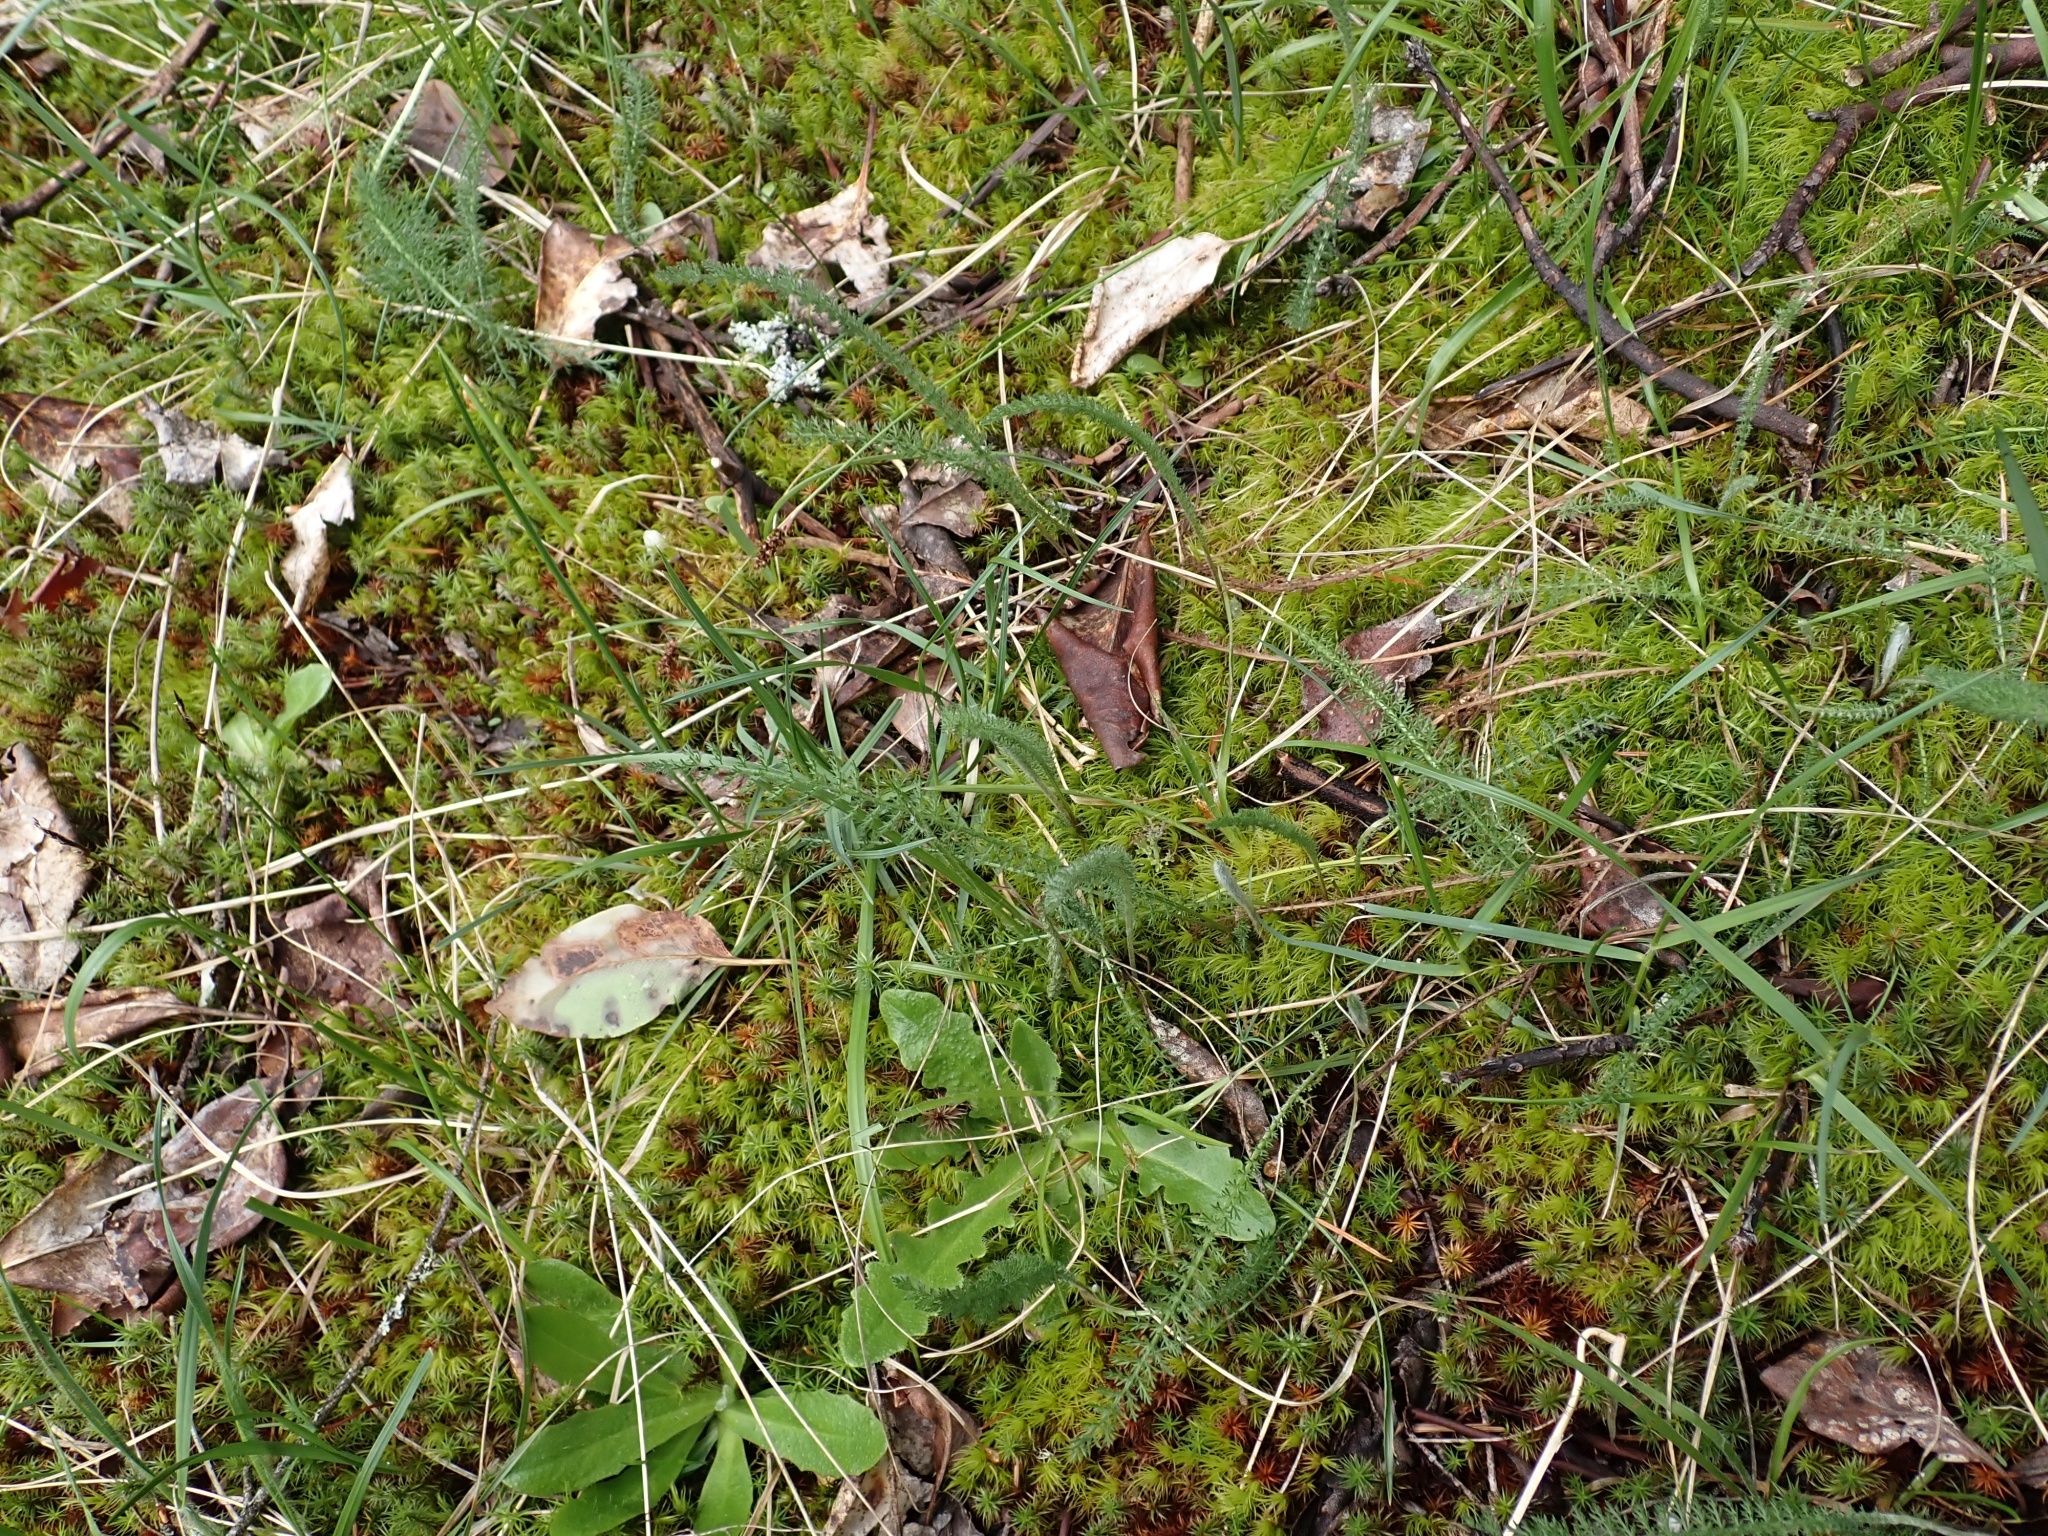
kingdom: Plantae
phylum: Tracheophyta
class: Magnoliopsida
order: Asterales
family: Asteraceae
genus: Achillea
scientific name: Achillea millefolium
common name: Yarrow
